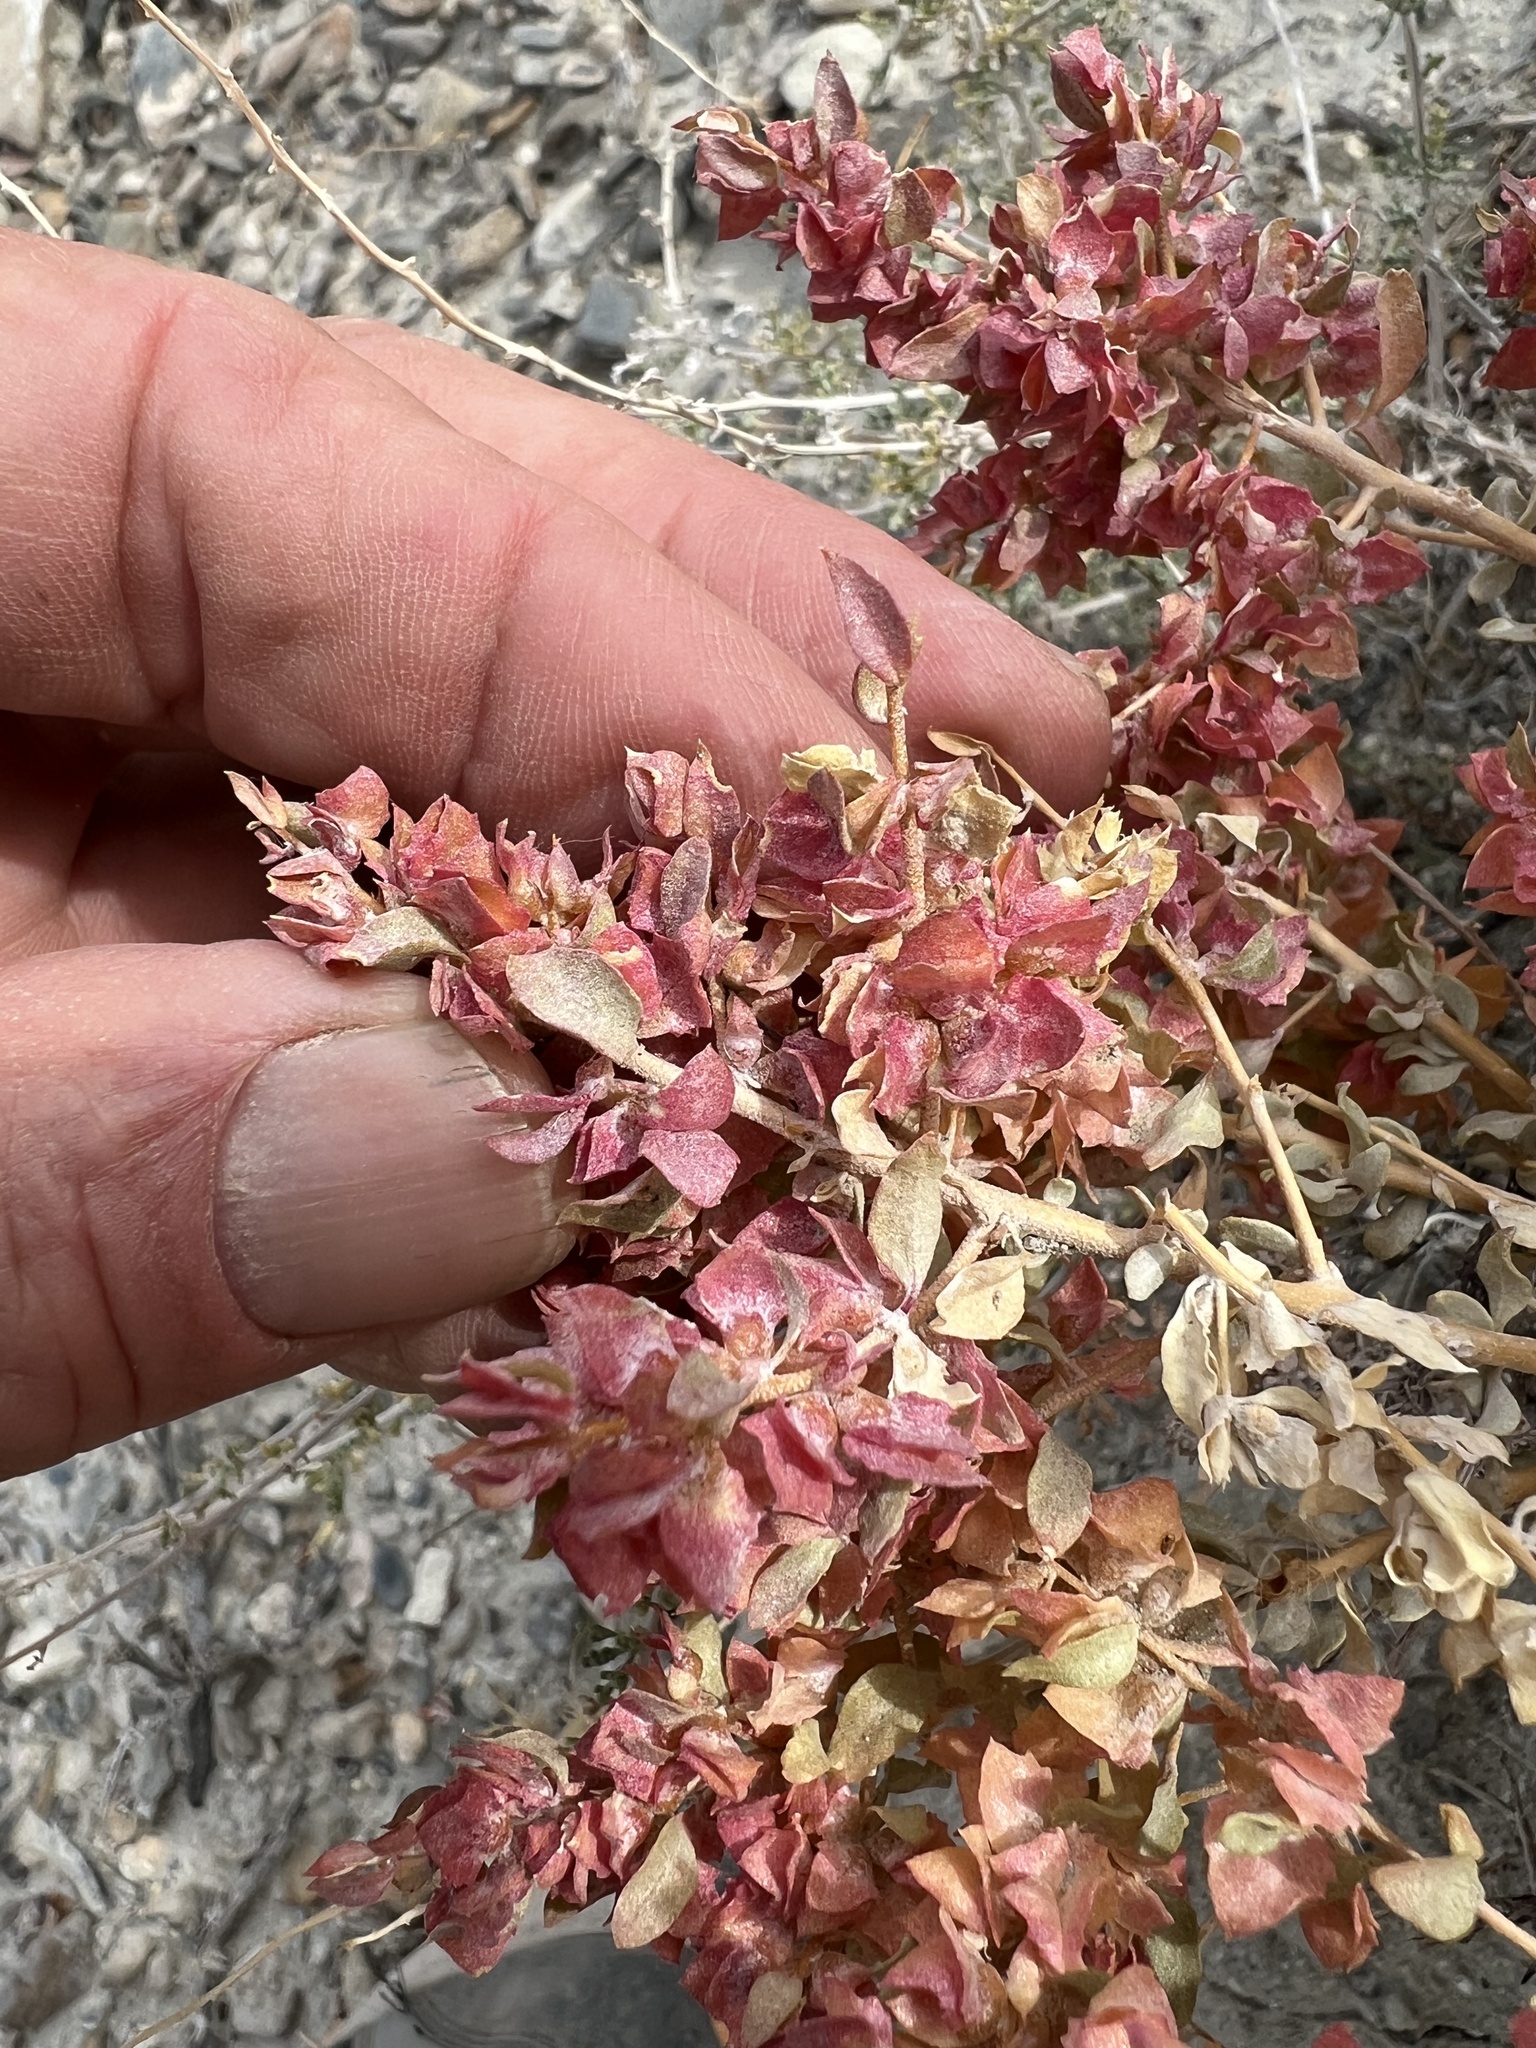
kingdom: Plantae
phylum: Tracheophyta
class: Magnoliopsida
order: Caryophyllales
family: Amaranthaceae
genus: Atriplex
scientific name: Atriplex confertifolia
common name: Shadscale
